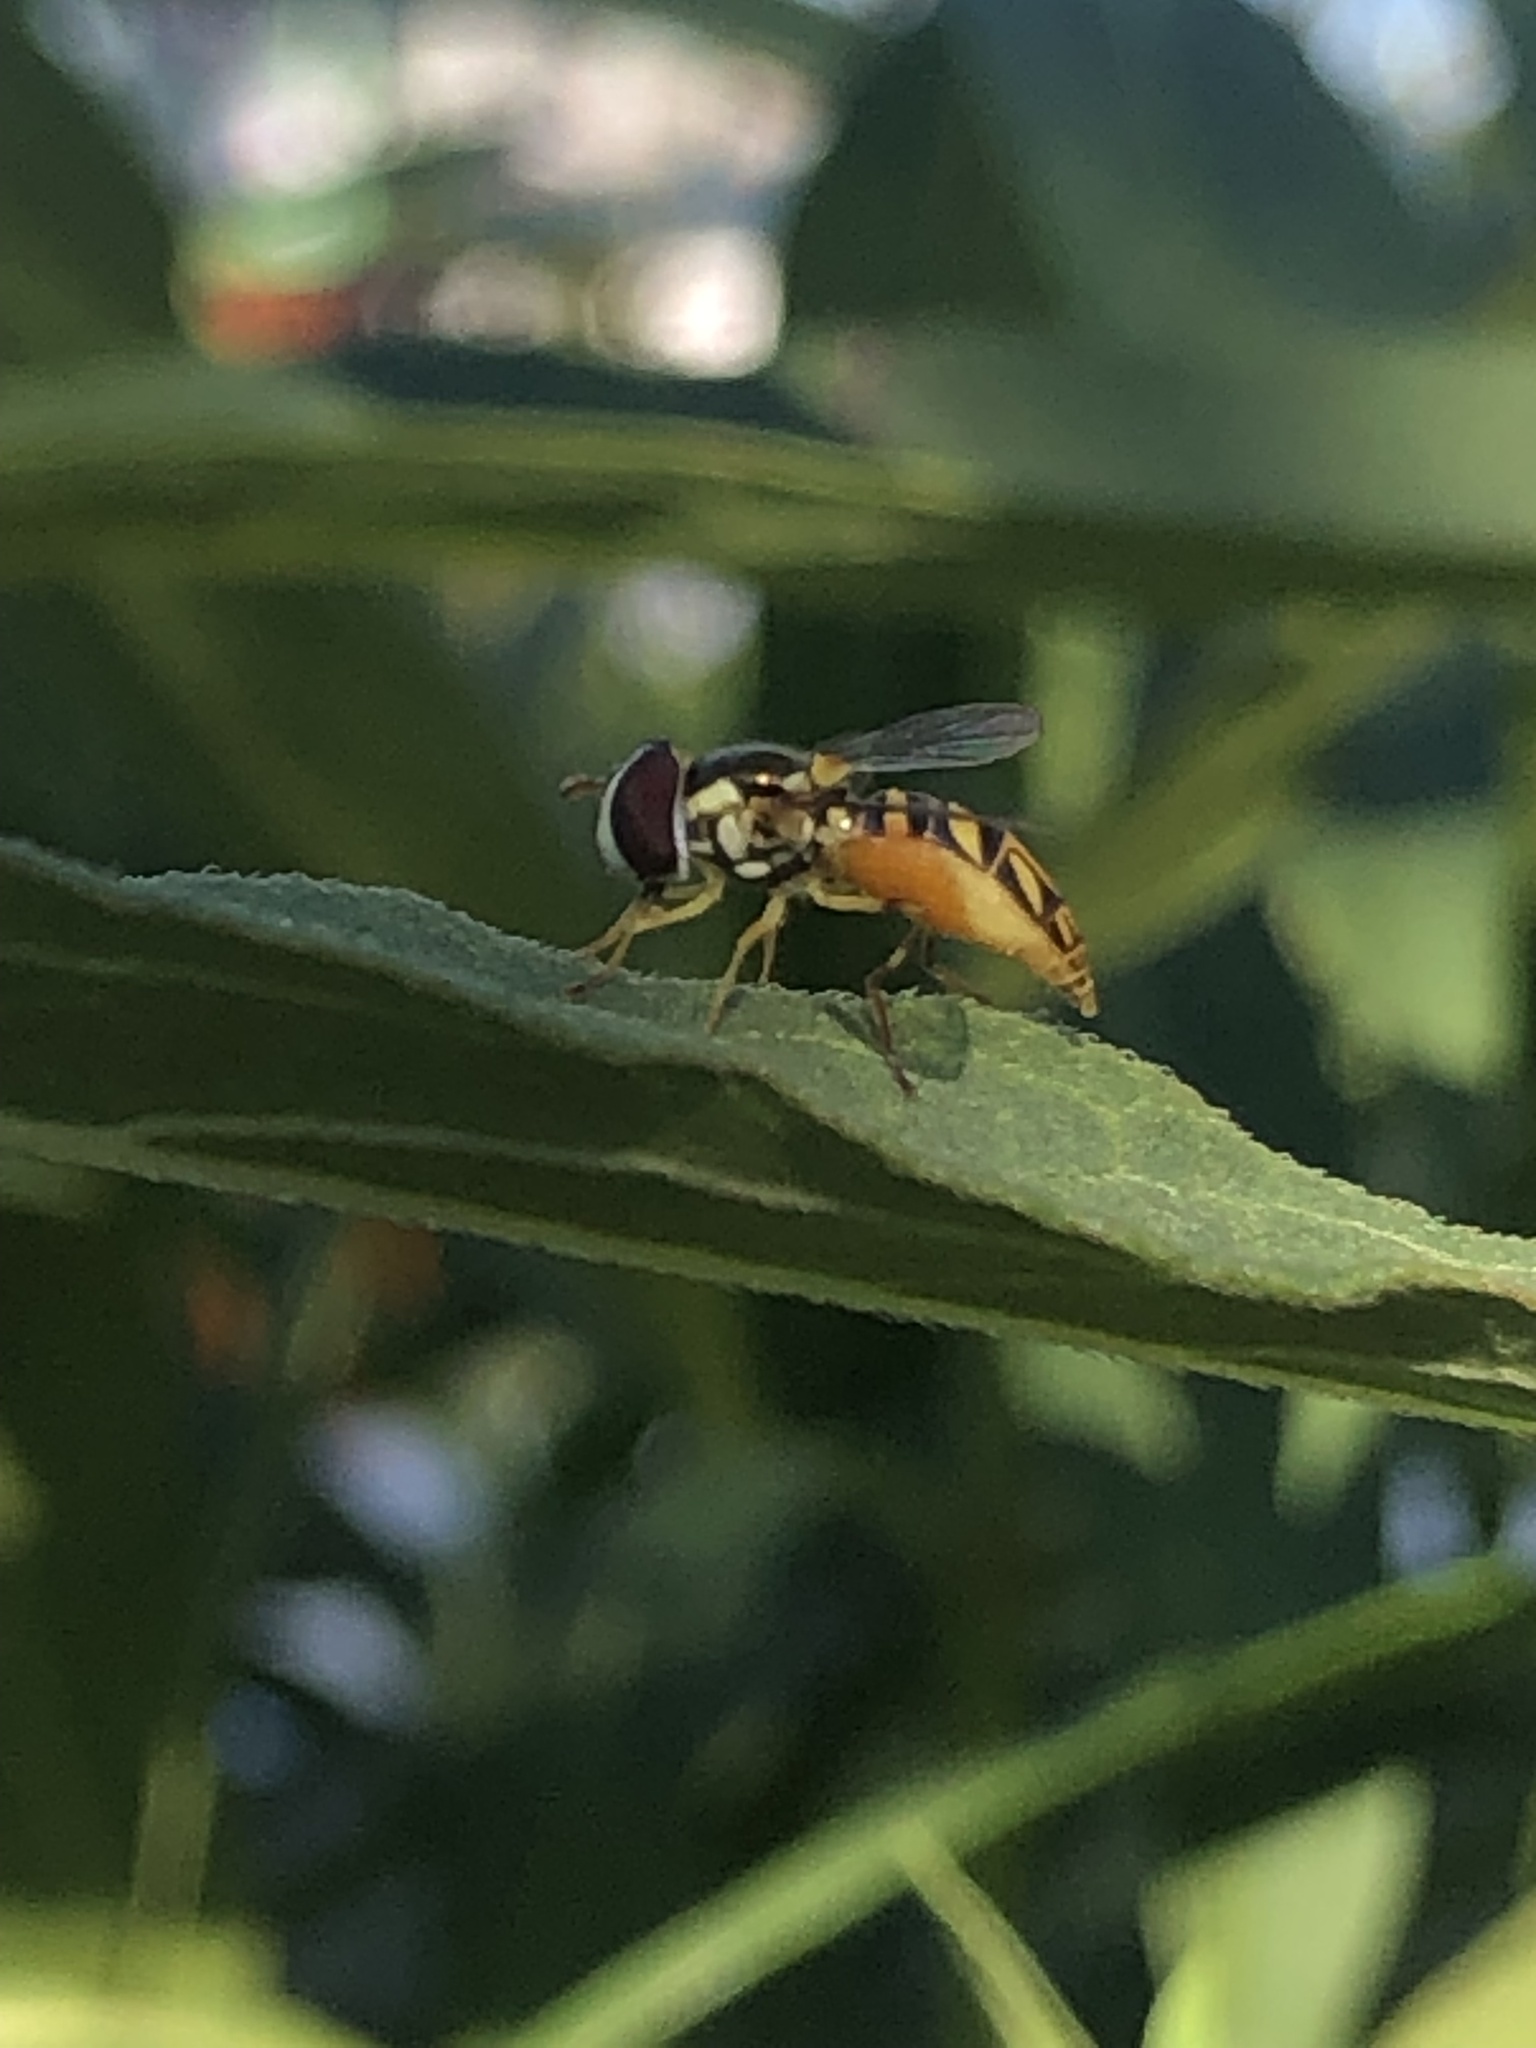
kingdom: Animalia
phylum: Arthropoda
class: Insecta
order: Diptera
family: Syrphidae
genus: Allograpta
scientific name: Allograpta obliqua
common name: Common oblique syrphid
